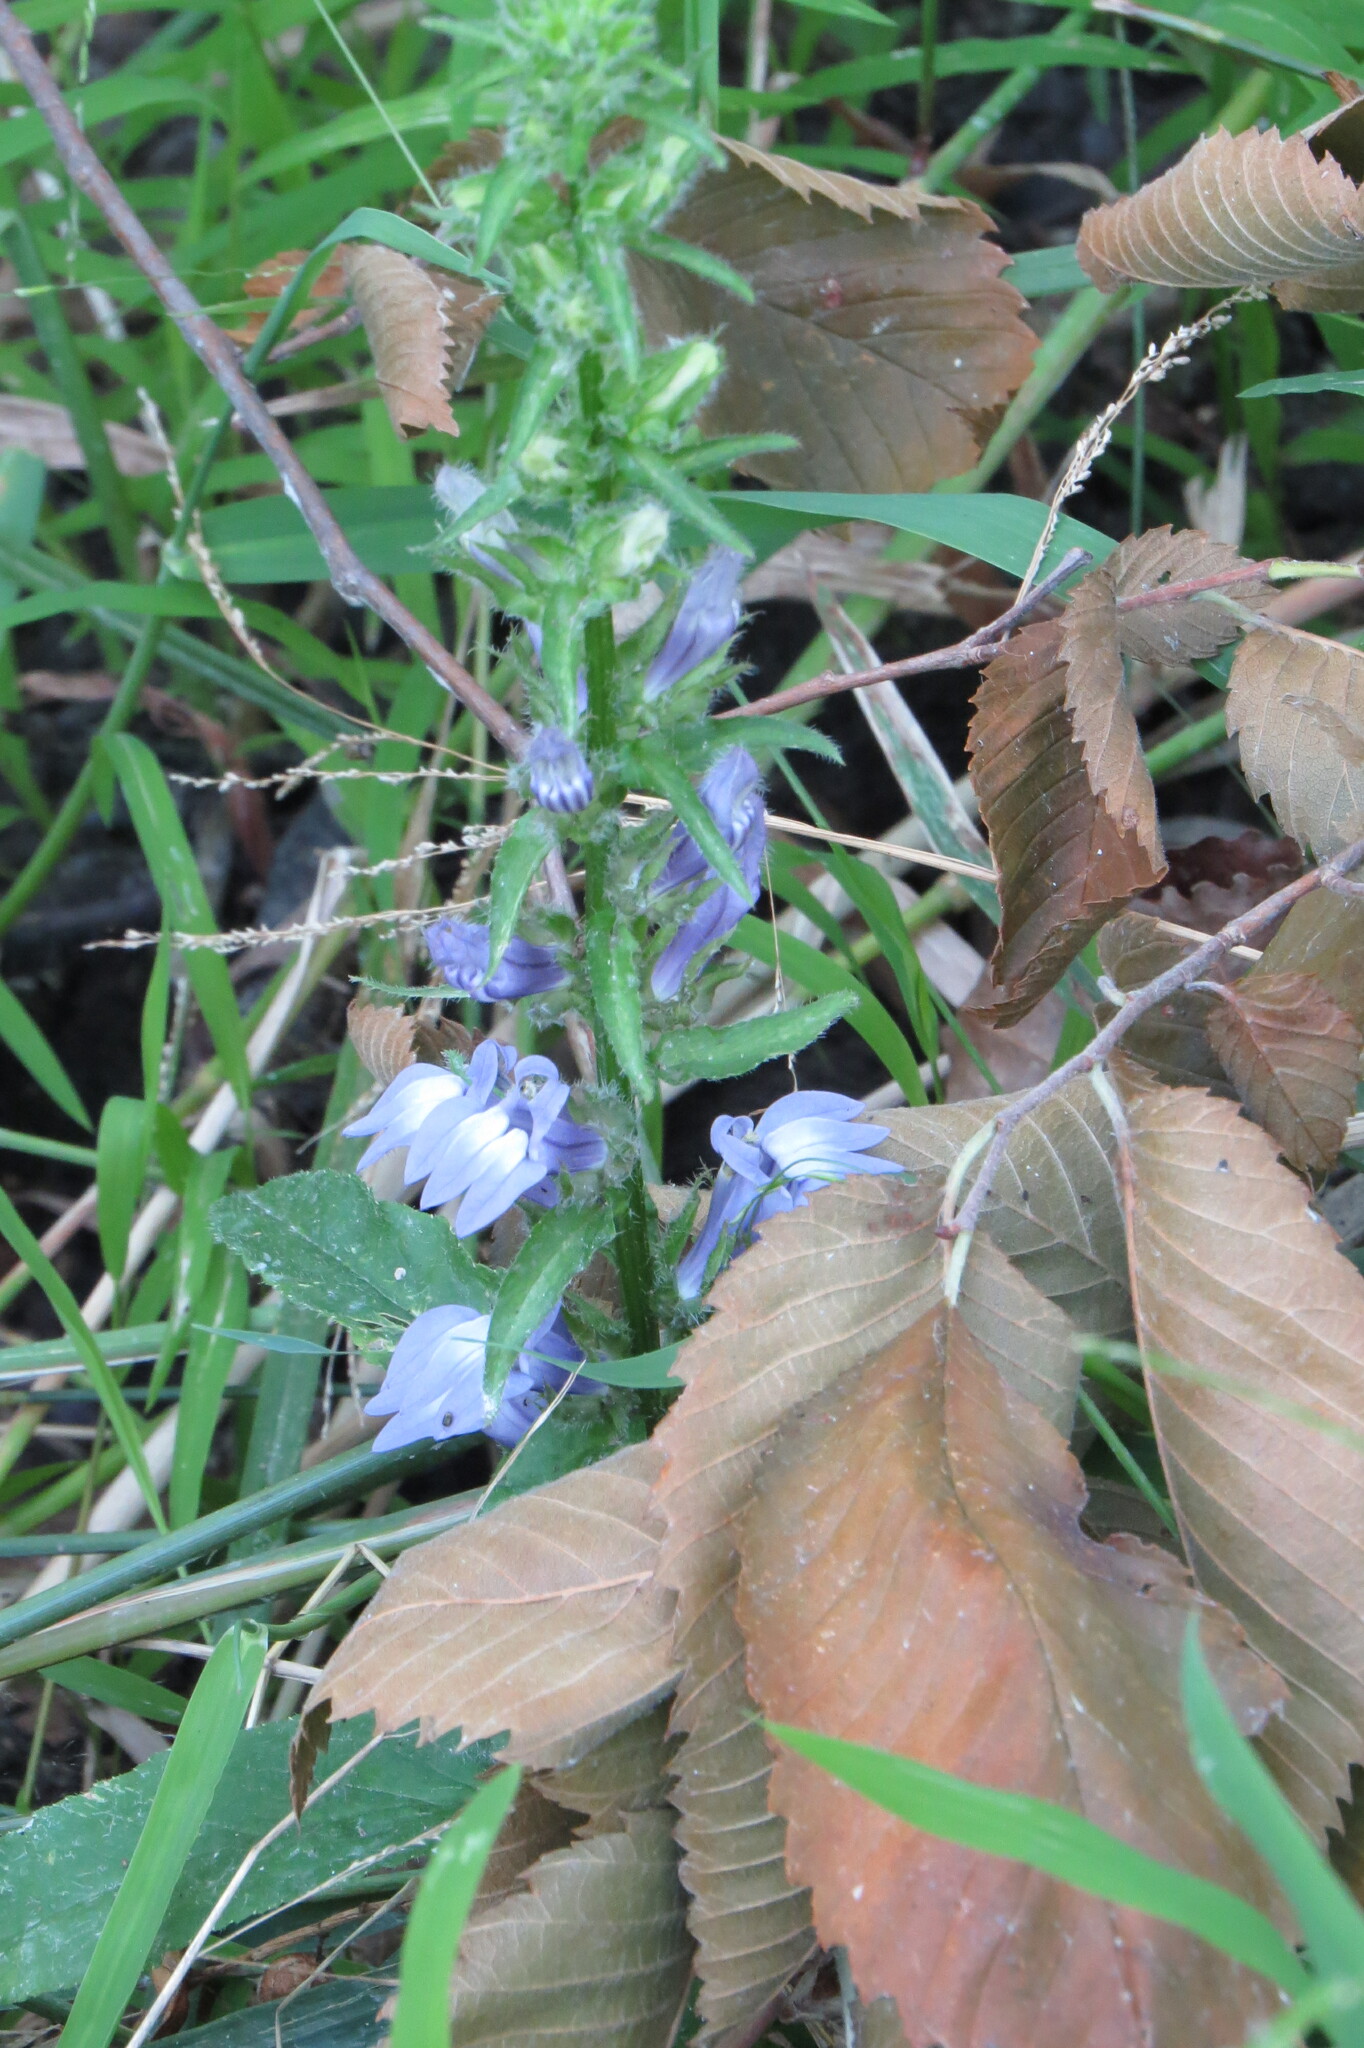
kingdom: Plantae
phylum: Tracheophyta
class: Magnoliopsida
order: Asterales
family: Campanulaceae
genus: Lobelia
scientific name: Lobelia siphilitica
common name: Great lobelia
